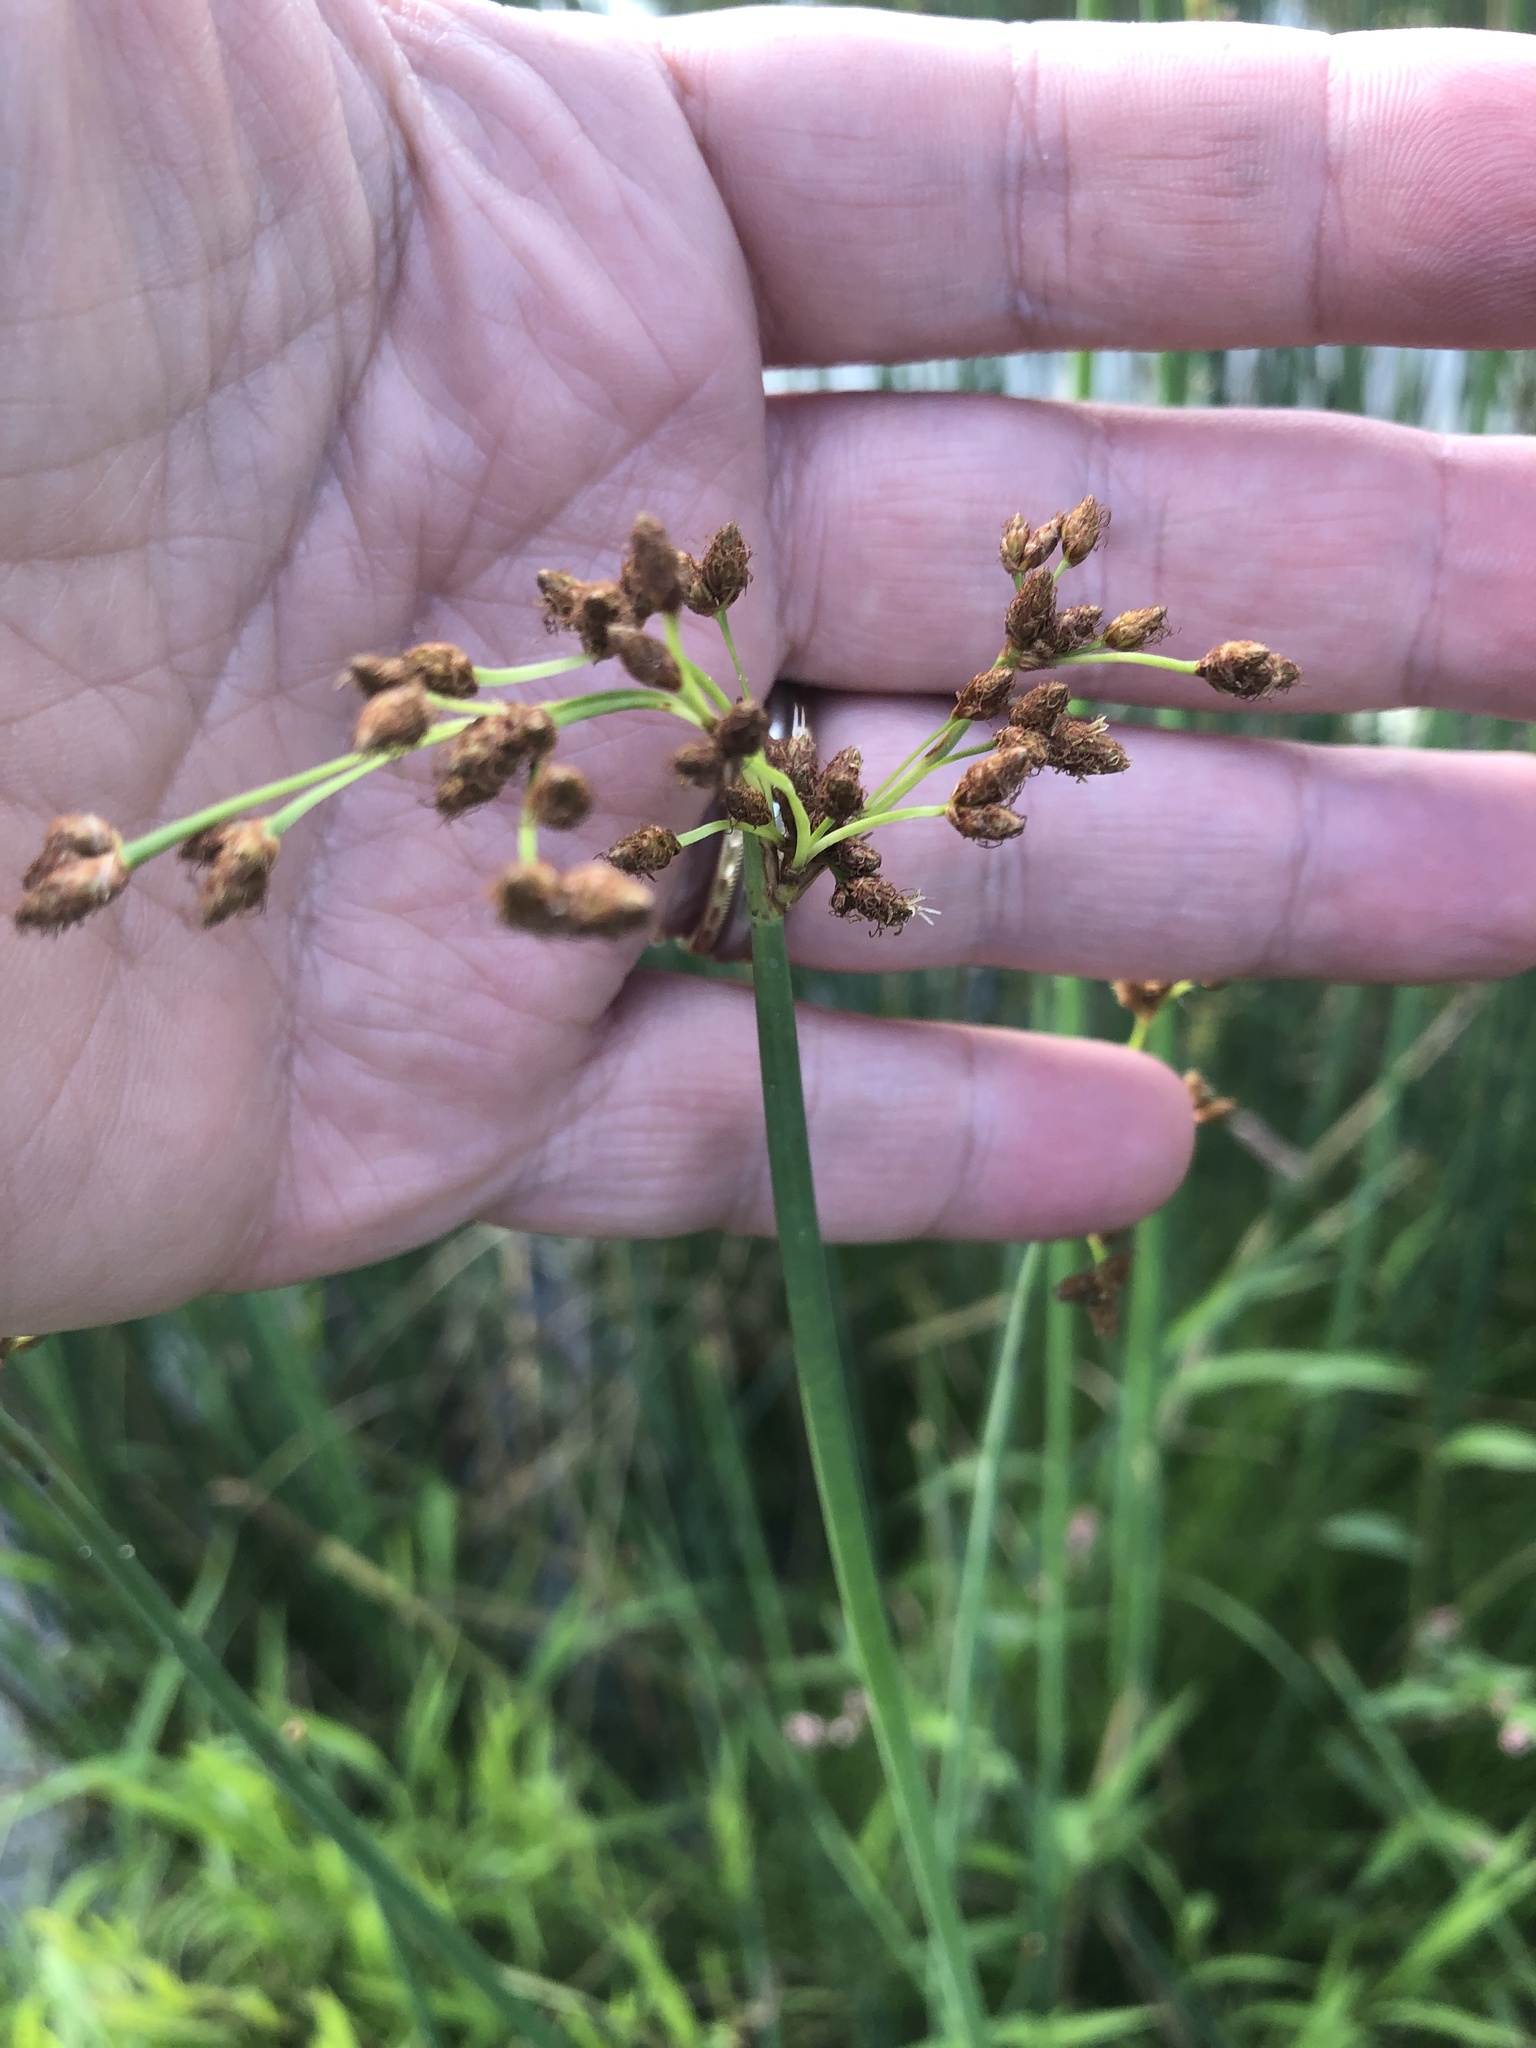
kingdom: Plantae
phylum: Tracheophyta
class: Liliopsida
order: Poales
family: Cyperaceae
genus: Schoenoplectus
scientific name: Schoenoplectus tabernaemontani
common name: Grey club-rush
